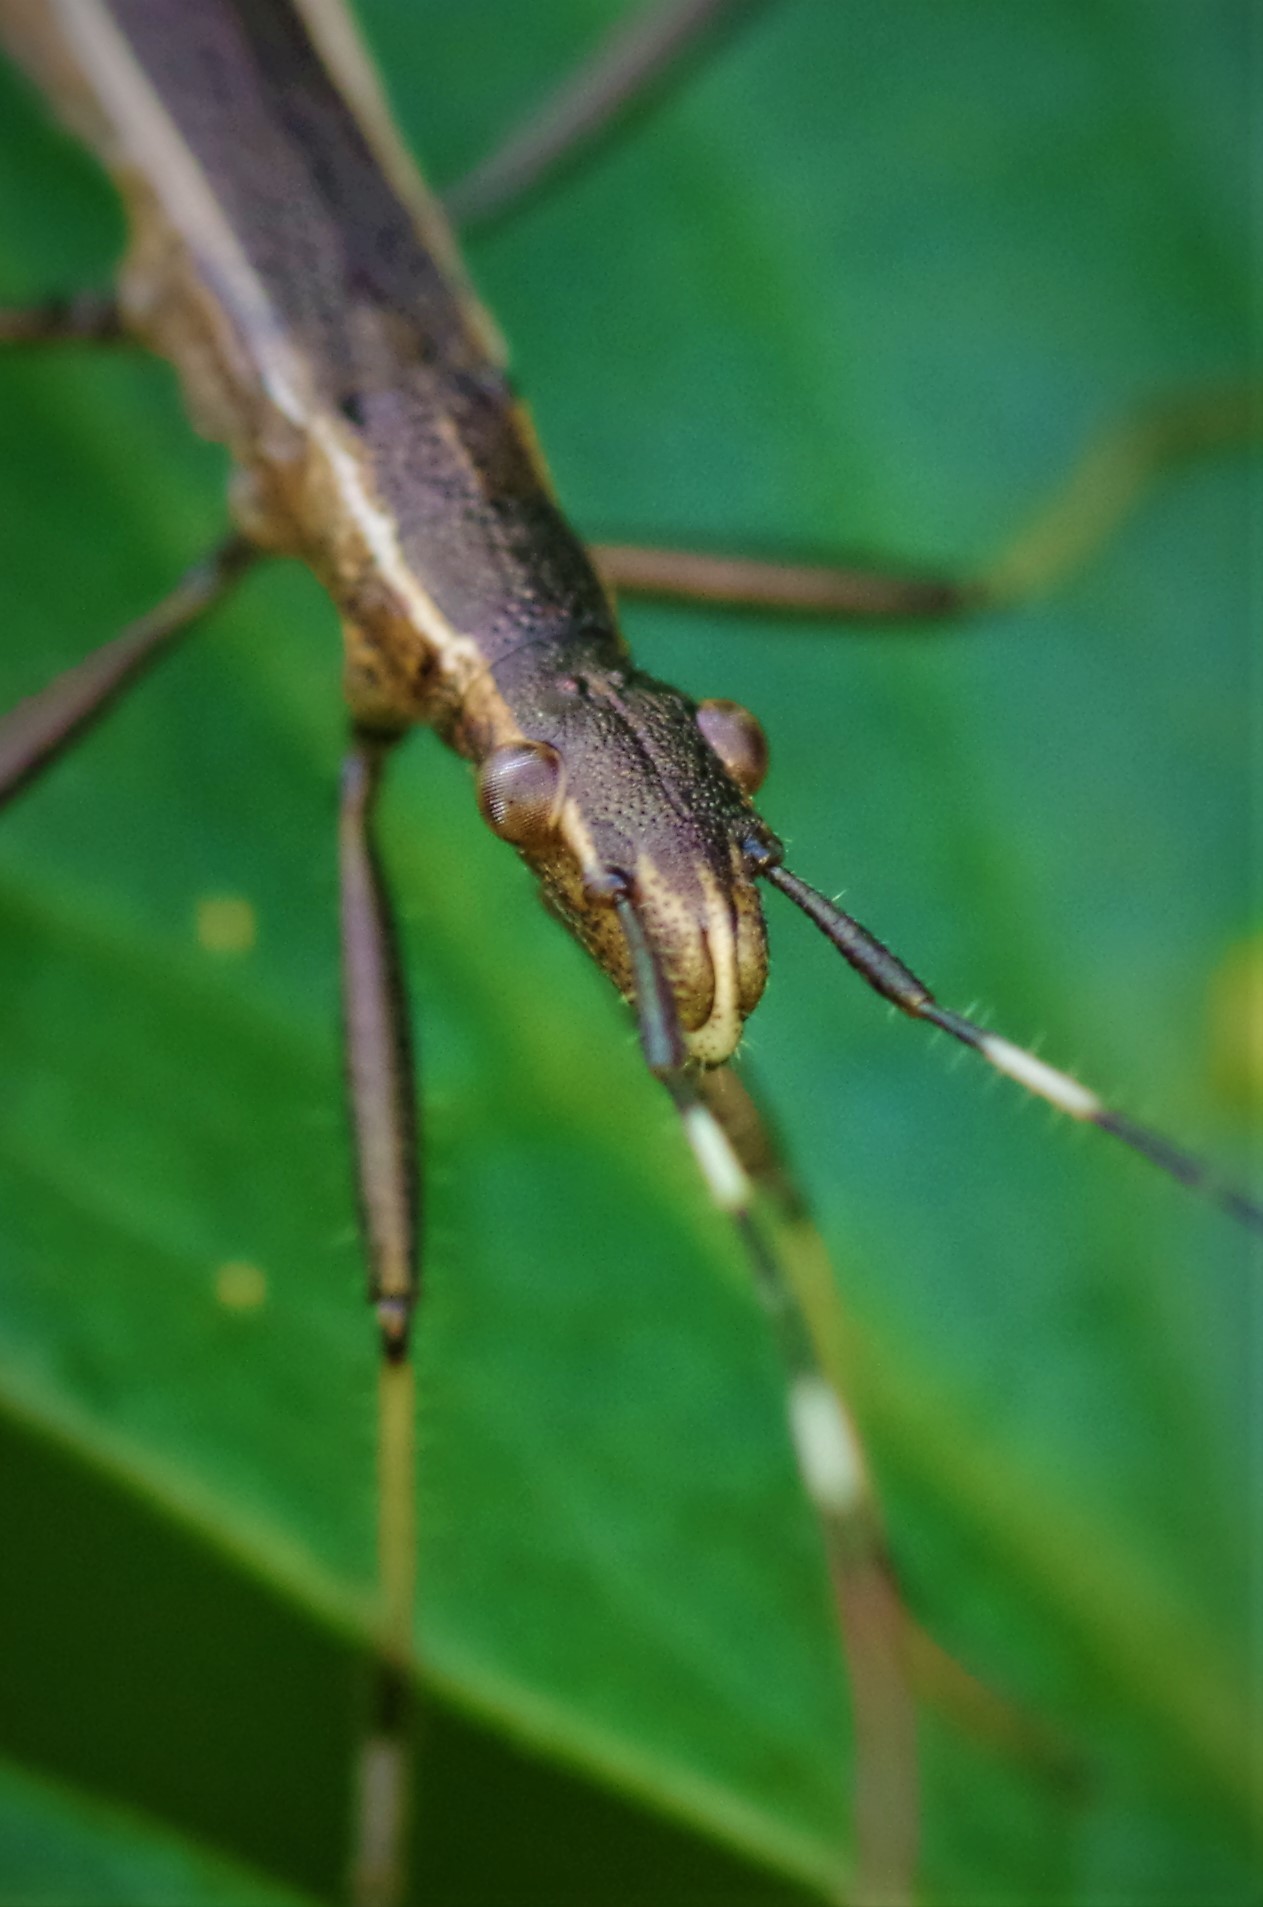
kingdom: Animalia
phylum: Arthropoda
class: Insecta
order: Hemiptera
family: Alydidae
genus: Micrelytra
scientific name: Micrelytra fossularum
